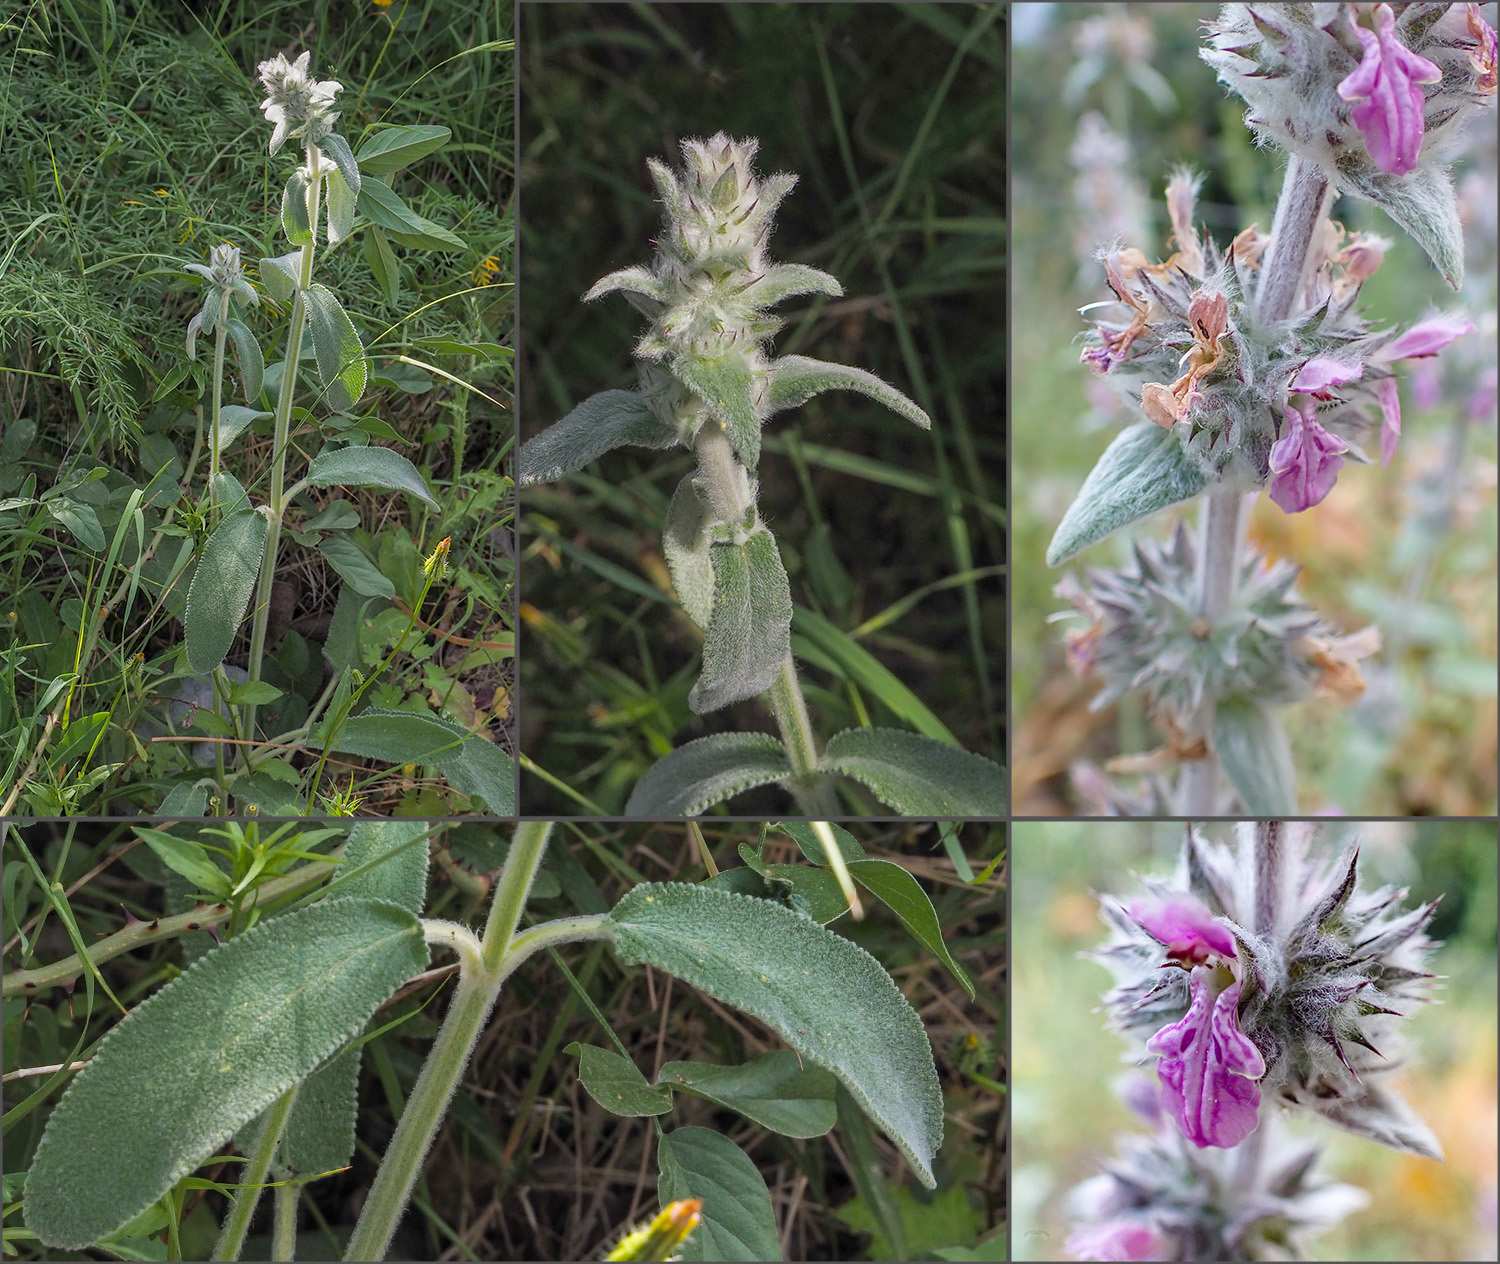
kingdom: Plantae
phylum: Tracheophyta
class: Magnoliopsida
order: Lamiales
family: Lamiaceae
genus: Stachys
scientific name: Stachys cretica
